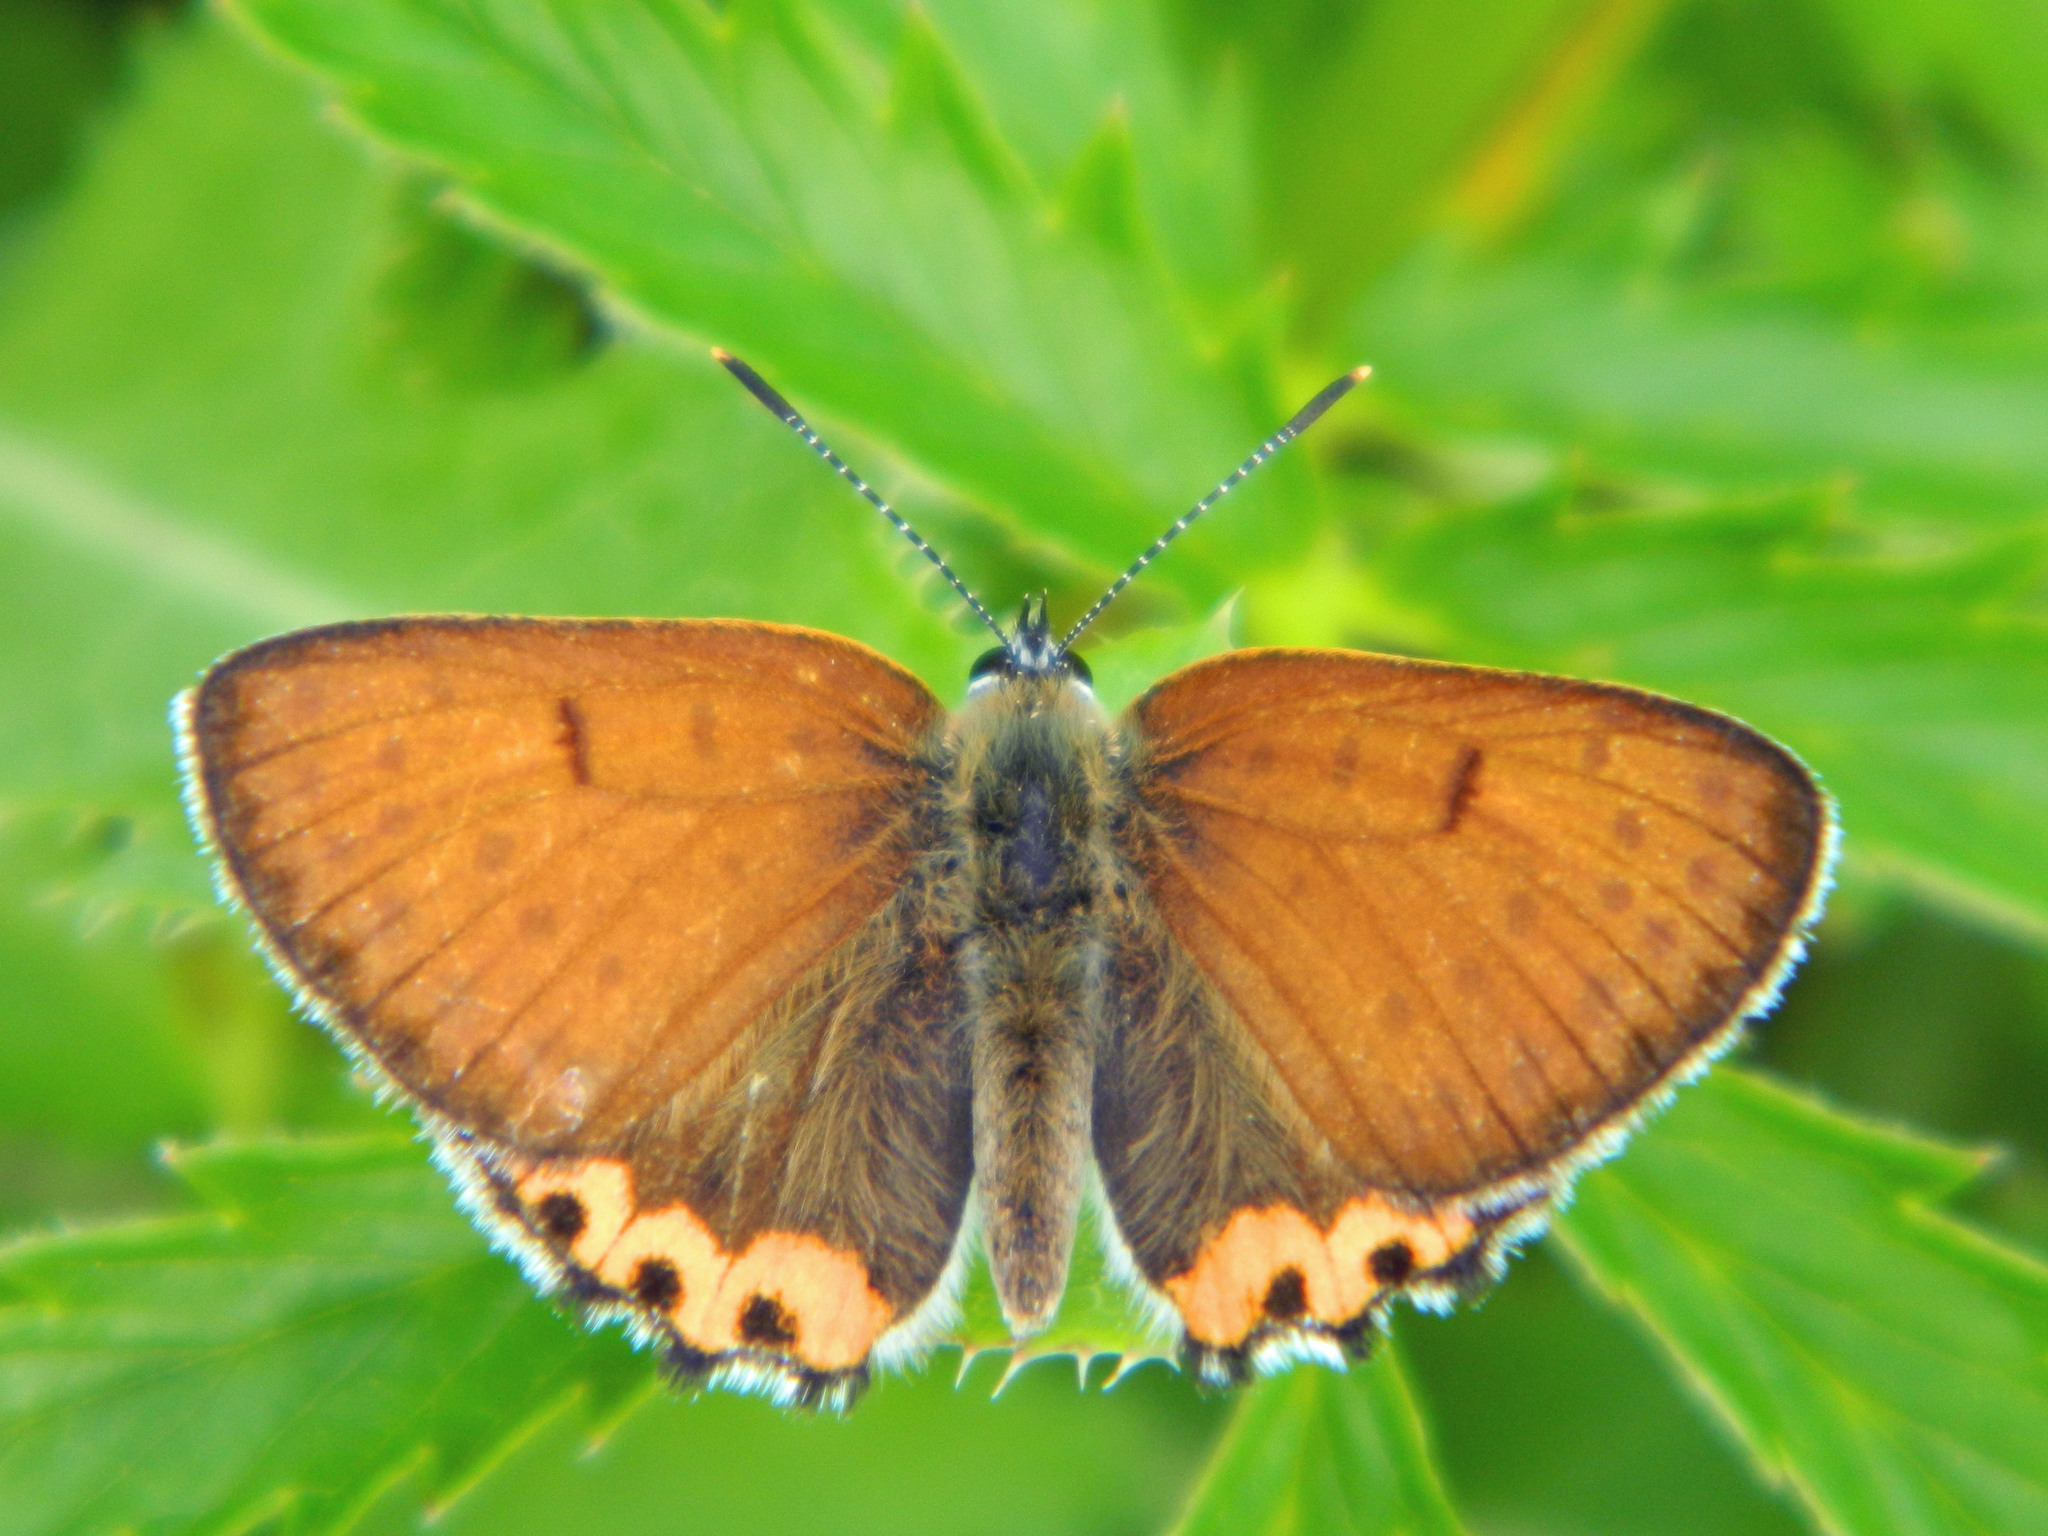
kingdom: Animalia
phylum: Arthropoda
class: Insecta
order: Lepidoptera
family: Lycaenidae
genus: Tharsalea
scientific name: Tharsalea hyllus
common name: Bronze copper
